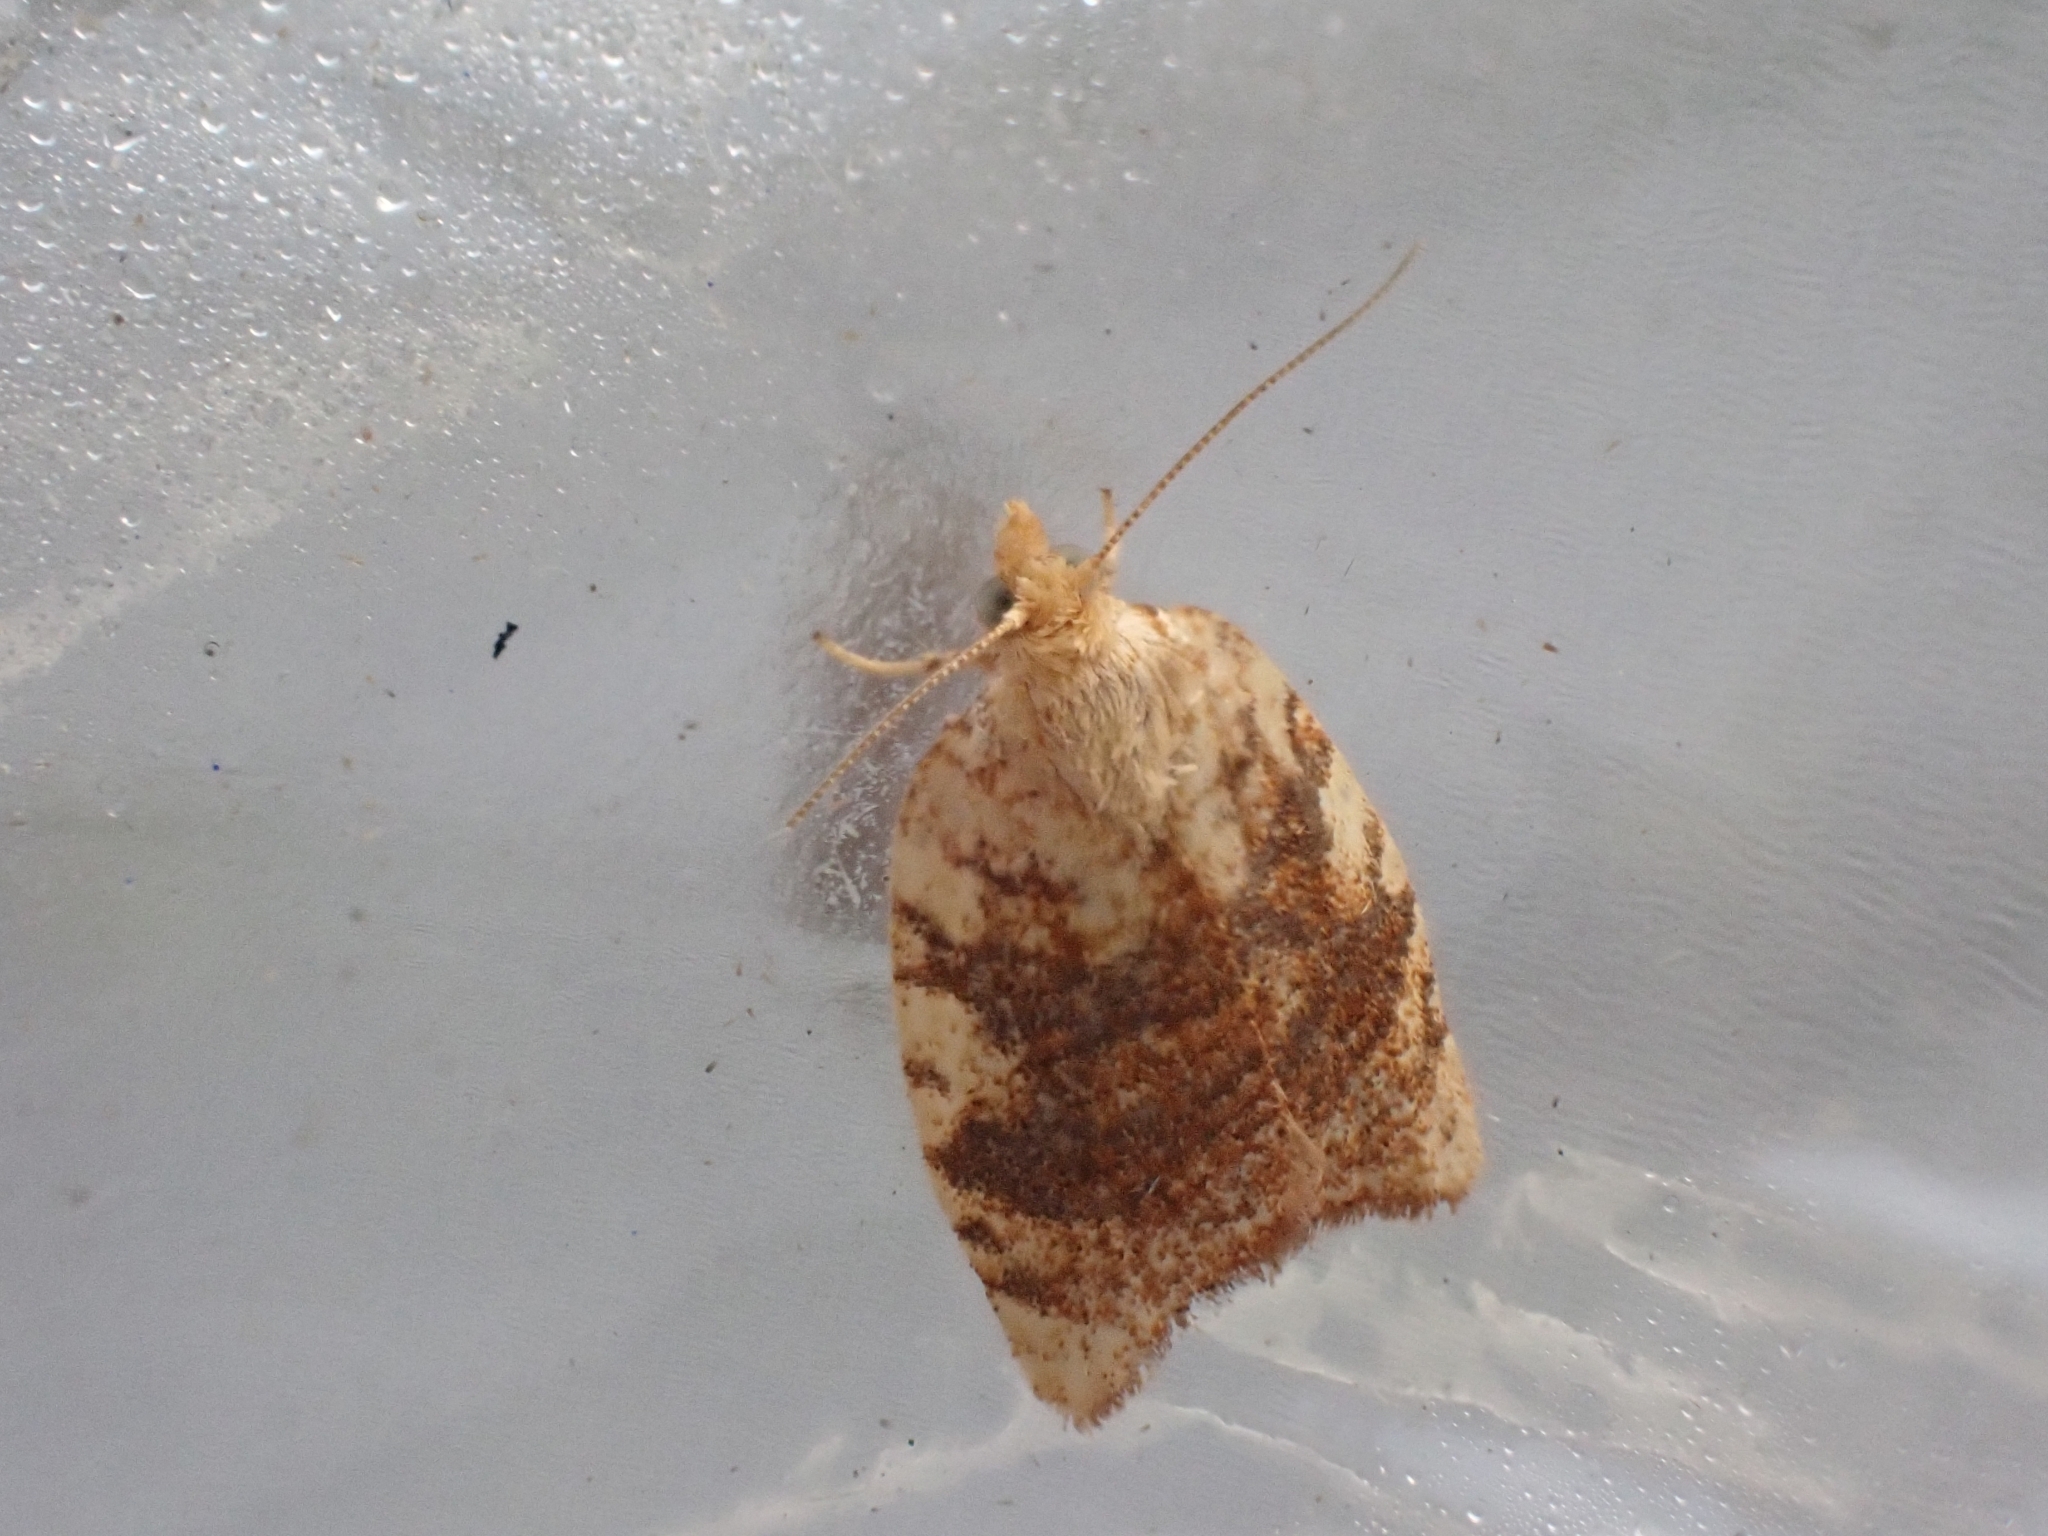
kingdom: Animalia
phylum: Arthropoda
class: Insecta
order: Lepidoptera
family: Tortricidae
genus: Aleimma
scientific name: Aleimma loeflingiana
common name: Yellow oak button
